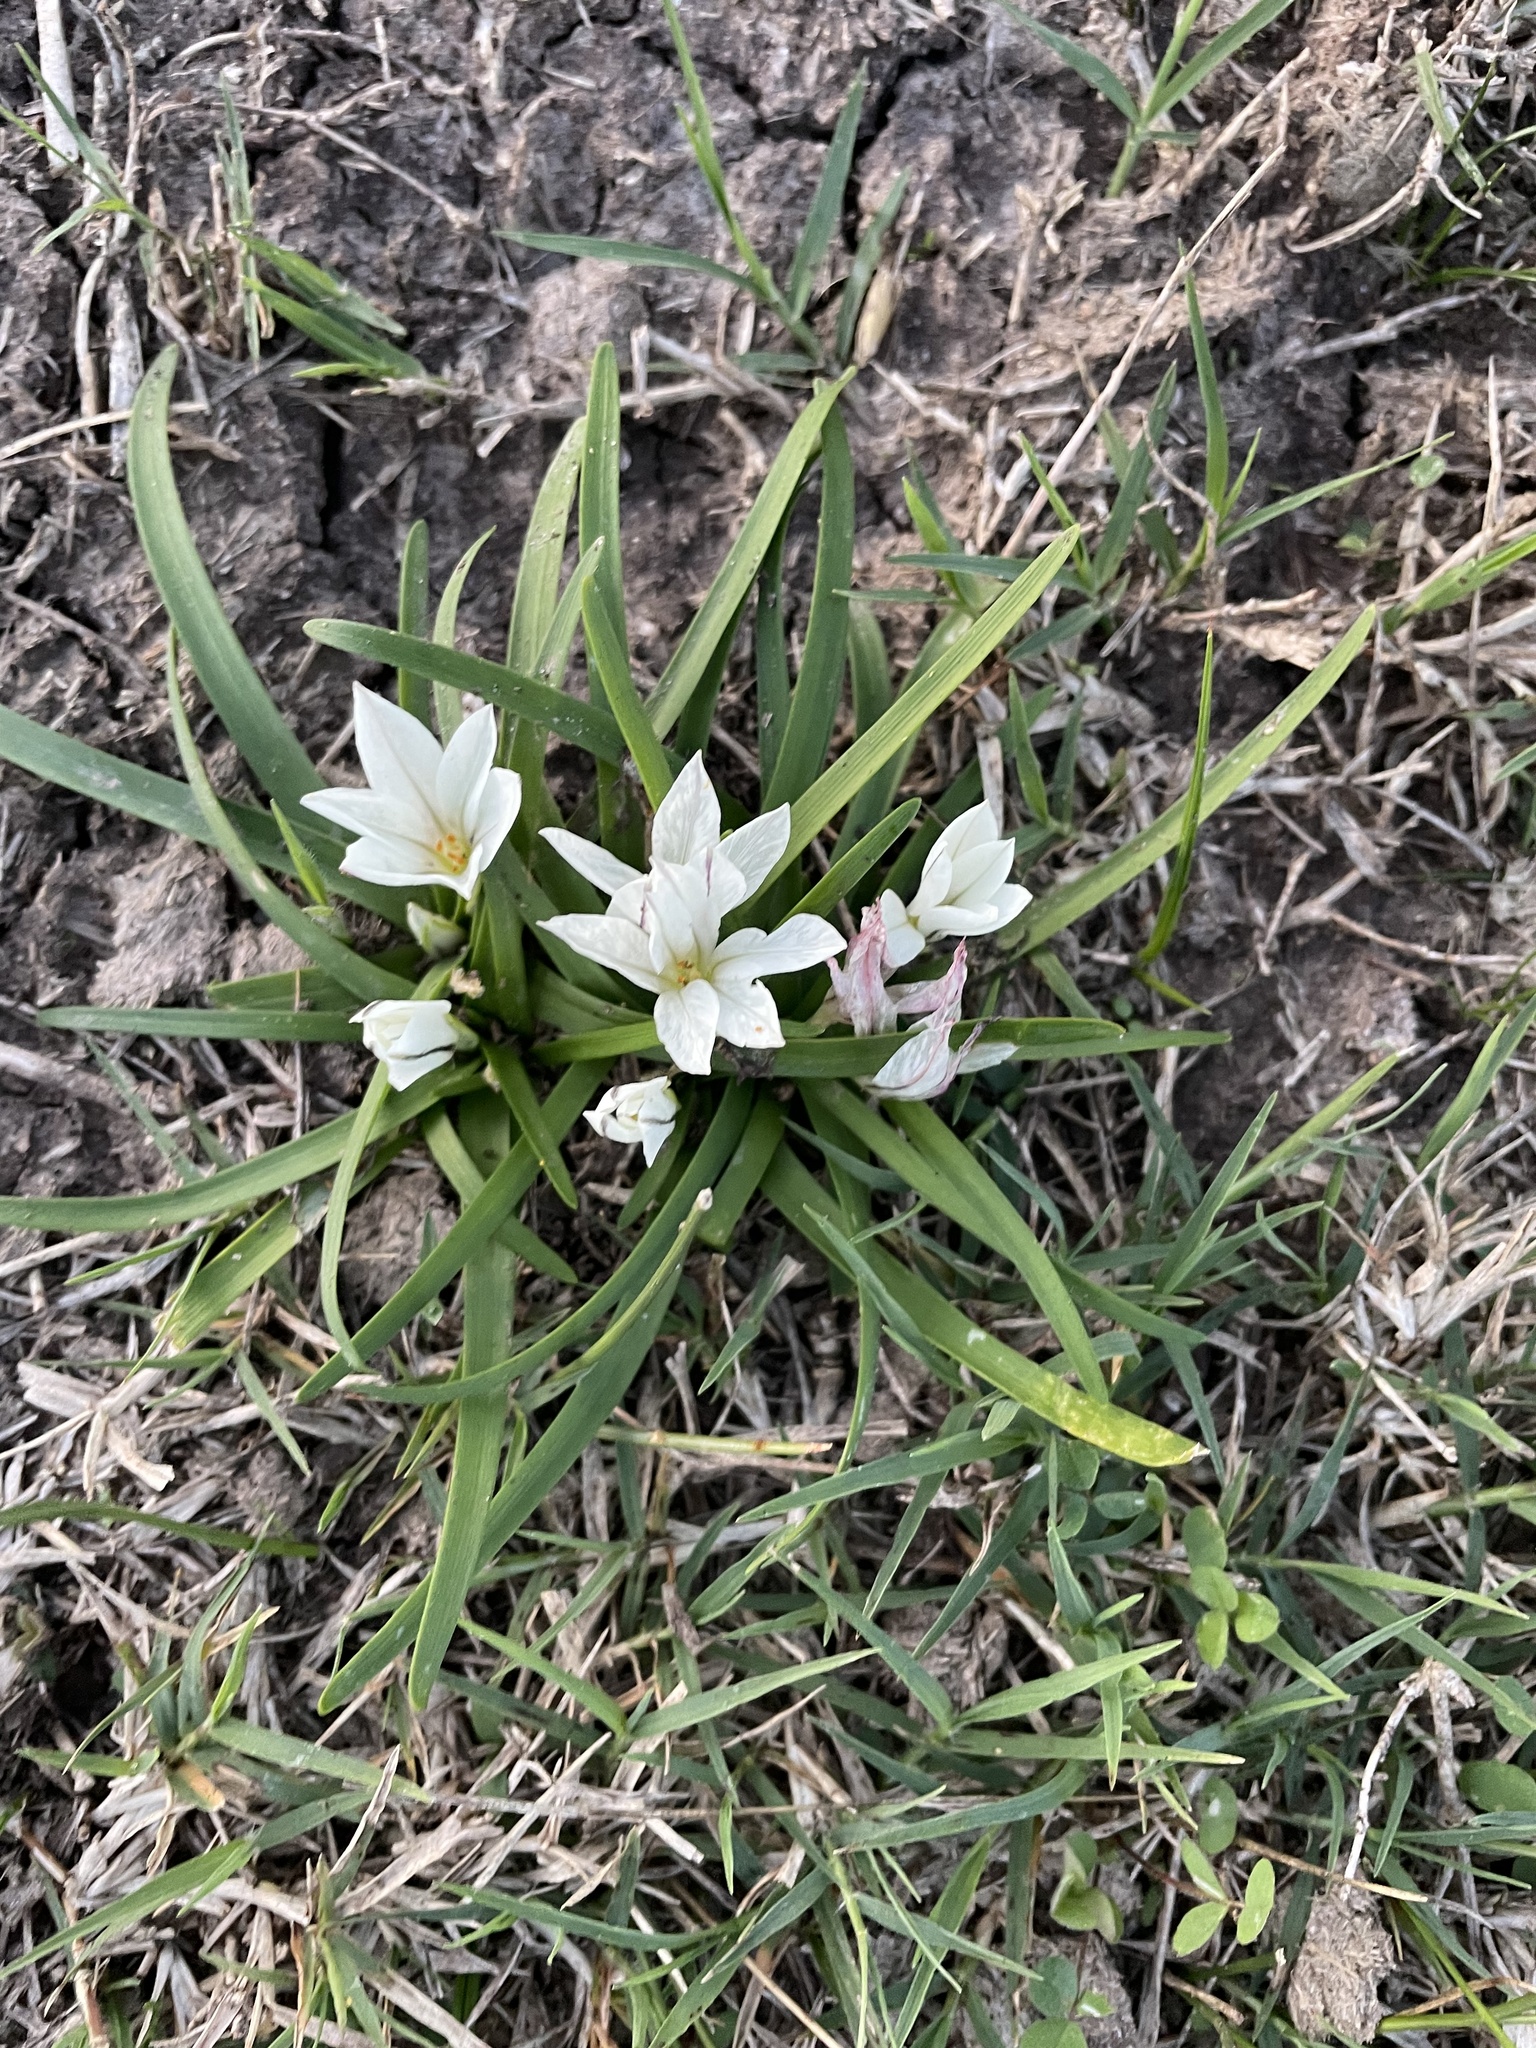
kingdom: Plantae
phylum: Tracheophyta
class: Liliopsida
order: Asparagales
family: Amaryllidaceae
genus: Ipheion
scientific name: Ipheion recurvifolium
